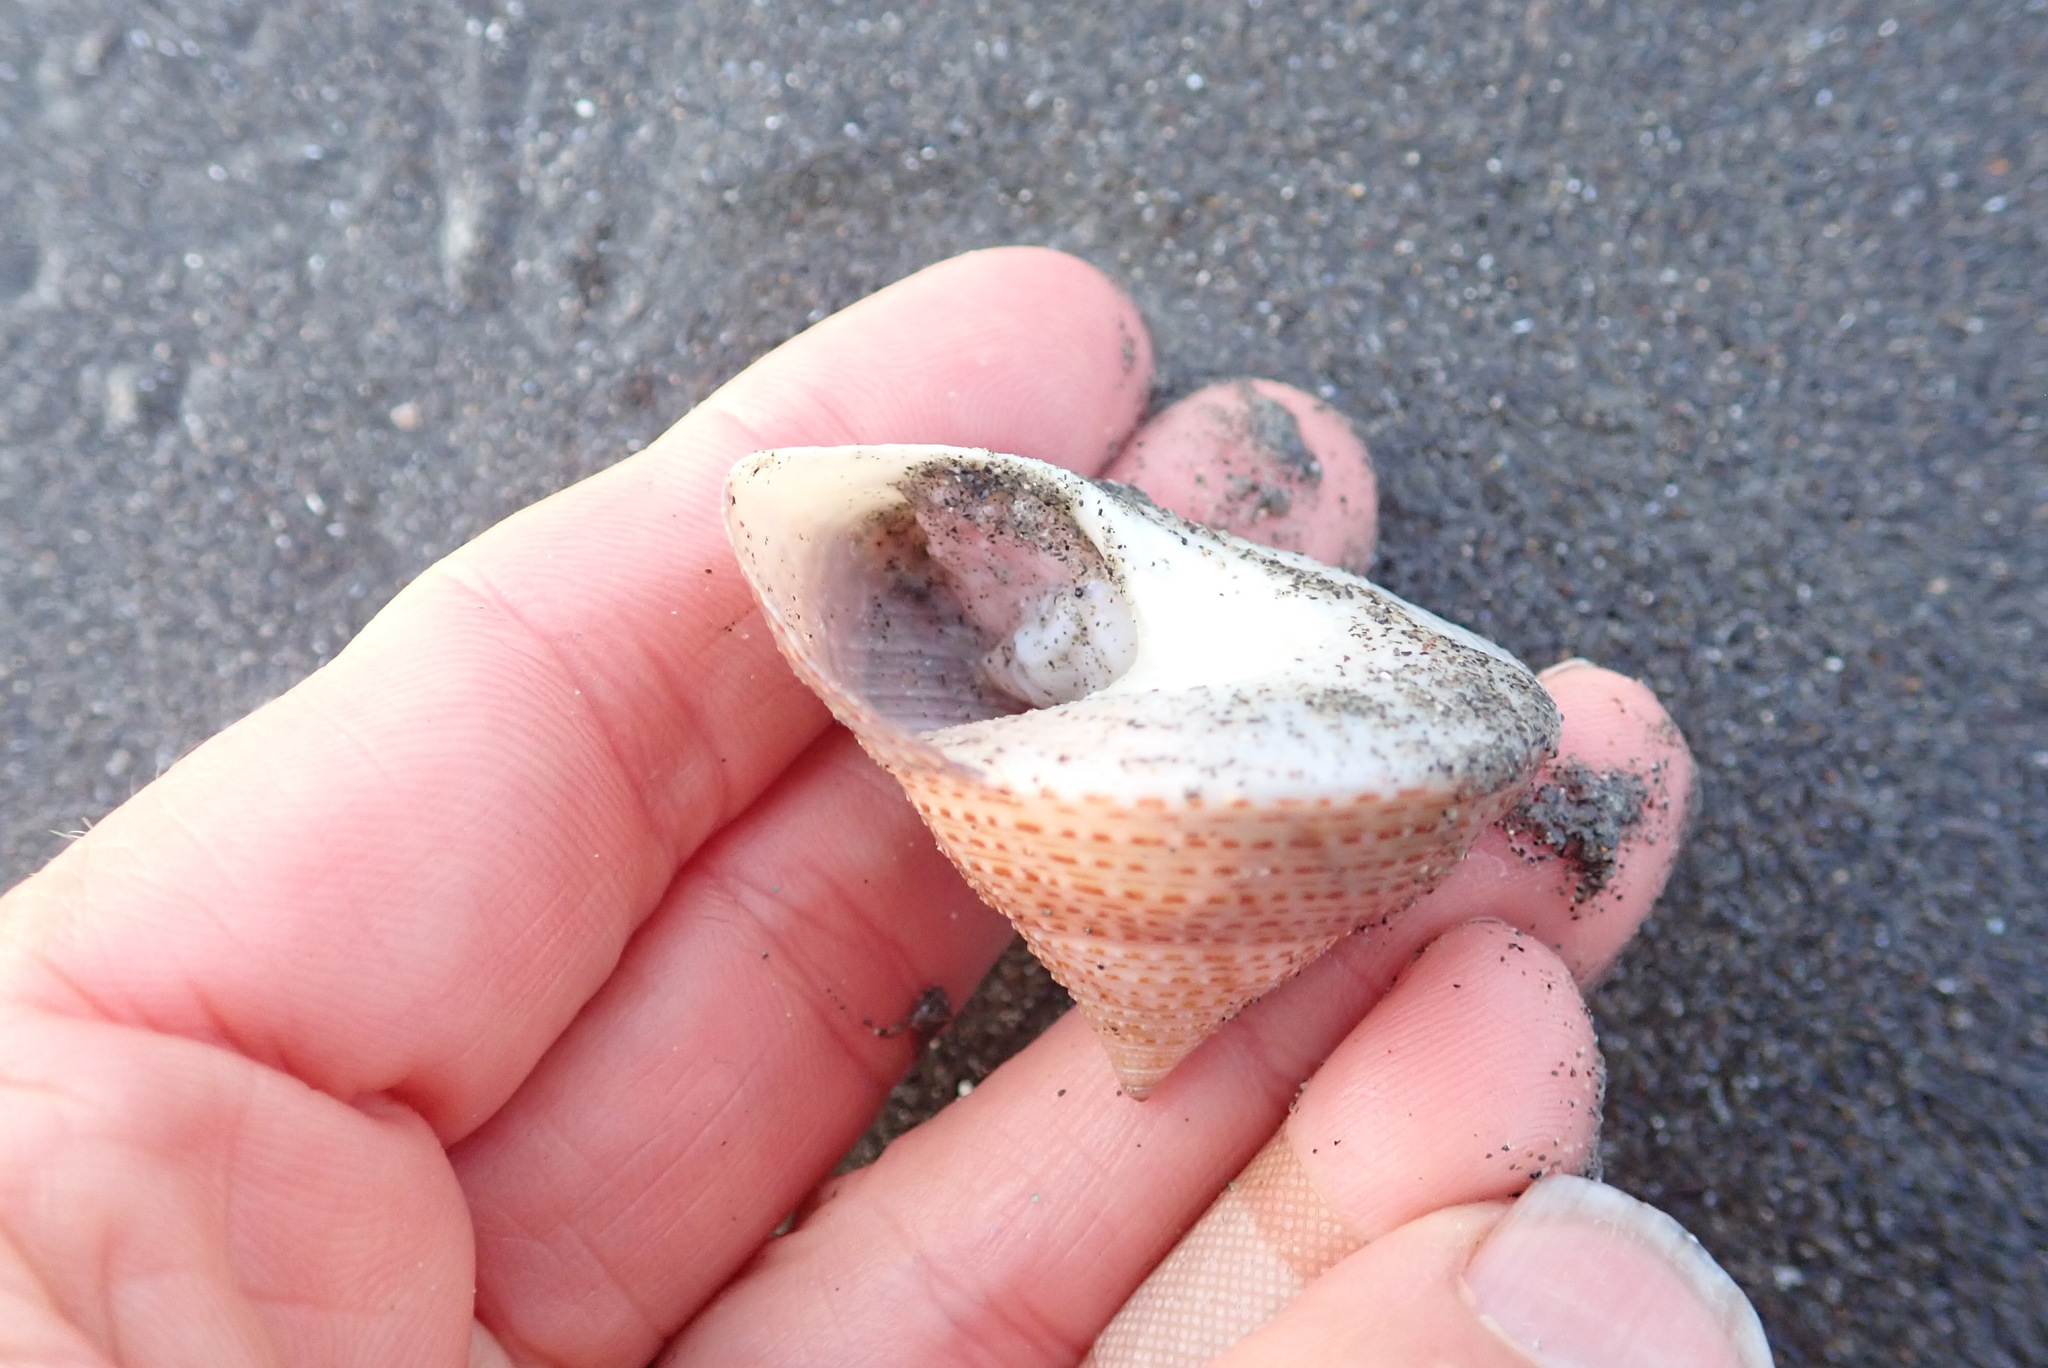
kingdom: Animalia
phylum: Mollusca
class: Gastropoda
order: Trochida
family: Calliostomatidae
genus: Maurea
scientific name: Maurea selecta
